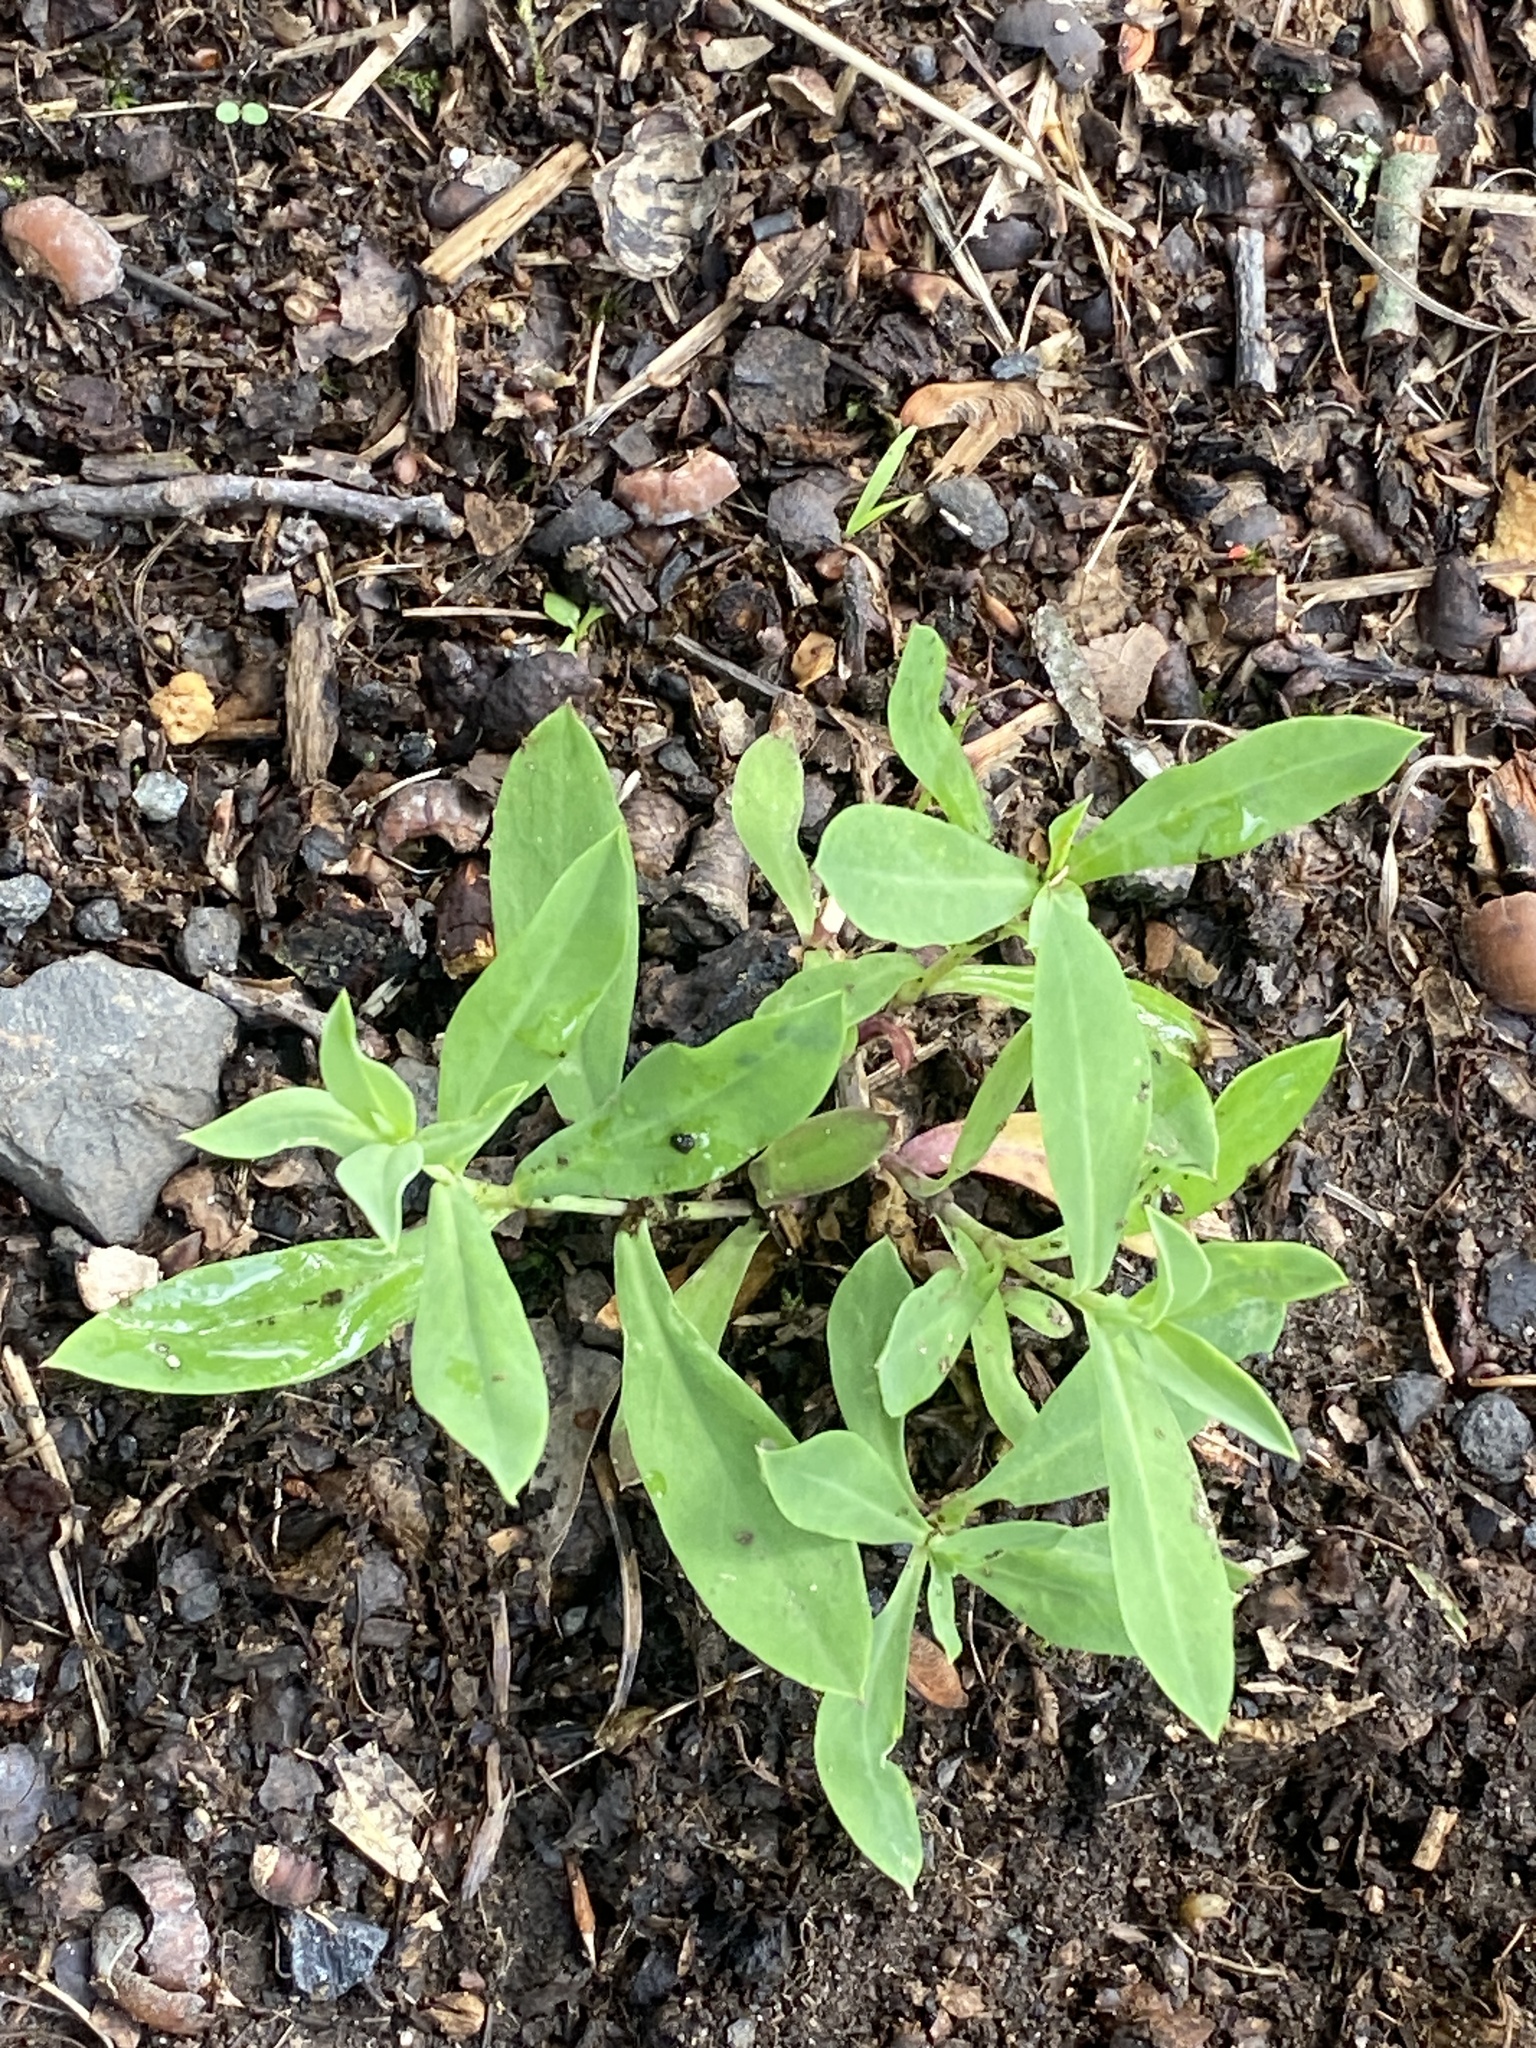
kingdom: Plantae
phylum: Tracheophyta
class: Magnoliopsida
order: Caryophyllales
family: Caryophyllaceae
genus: Silene
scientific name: Silene vulgaris
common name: Bladder campion
